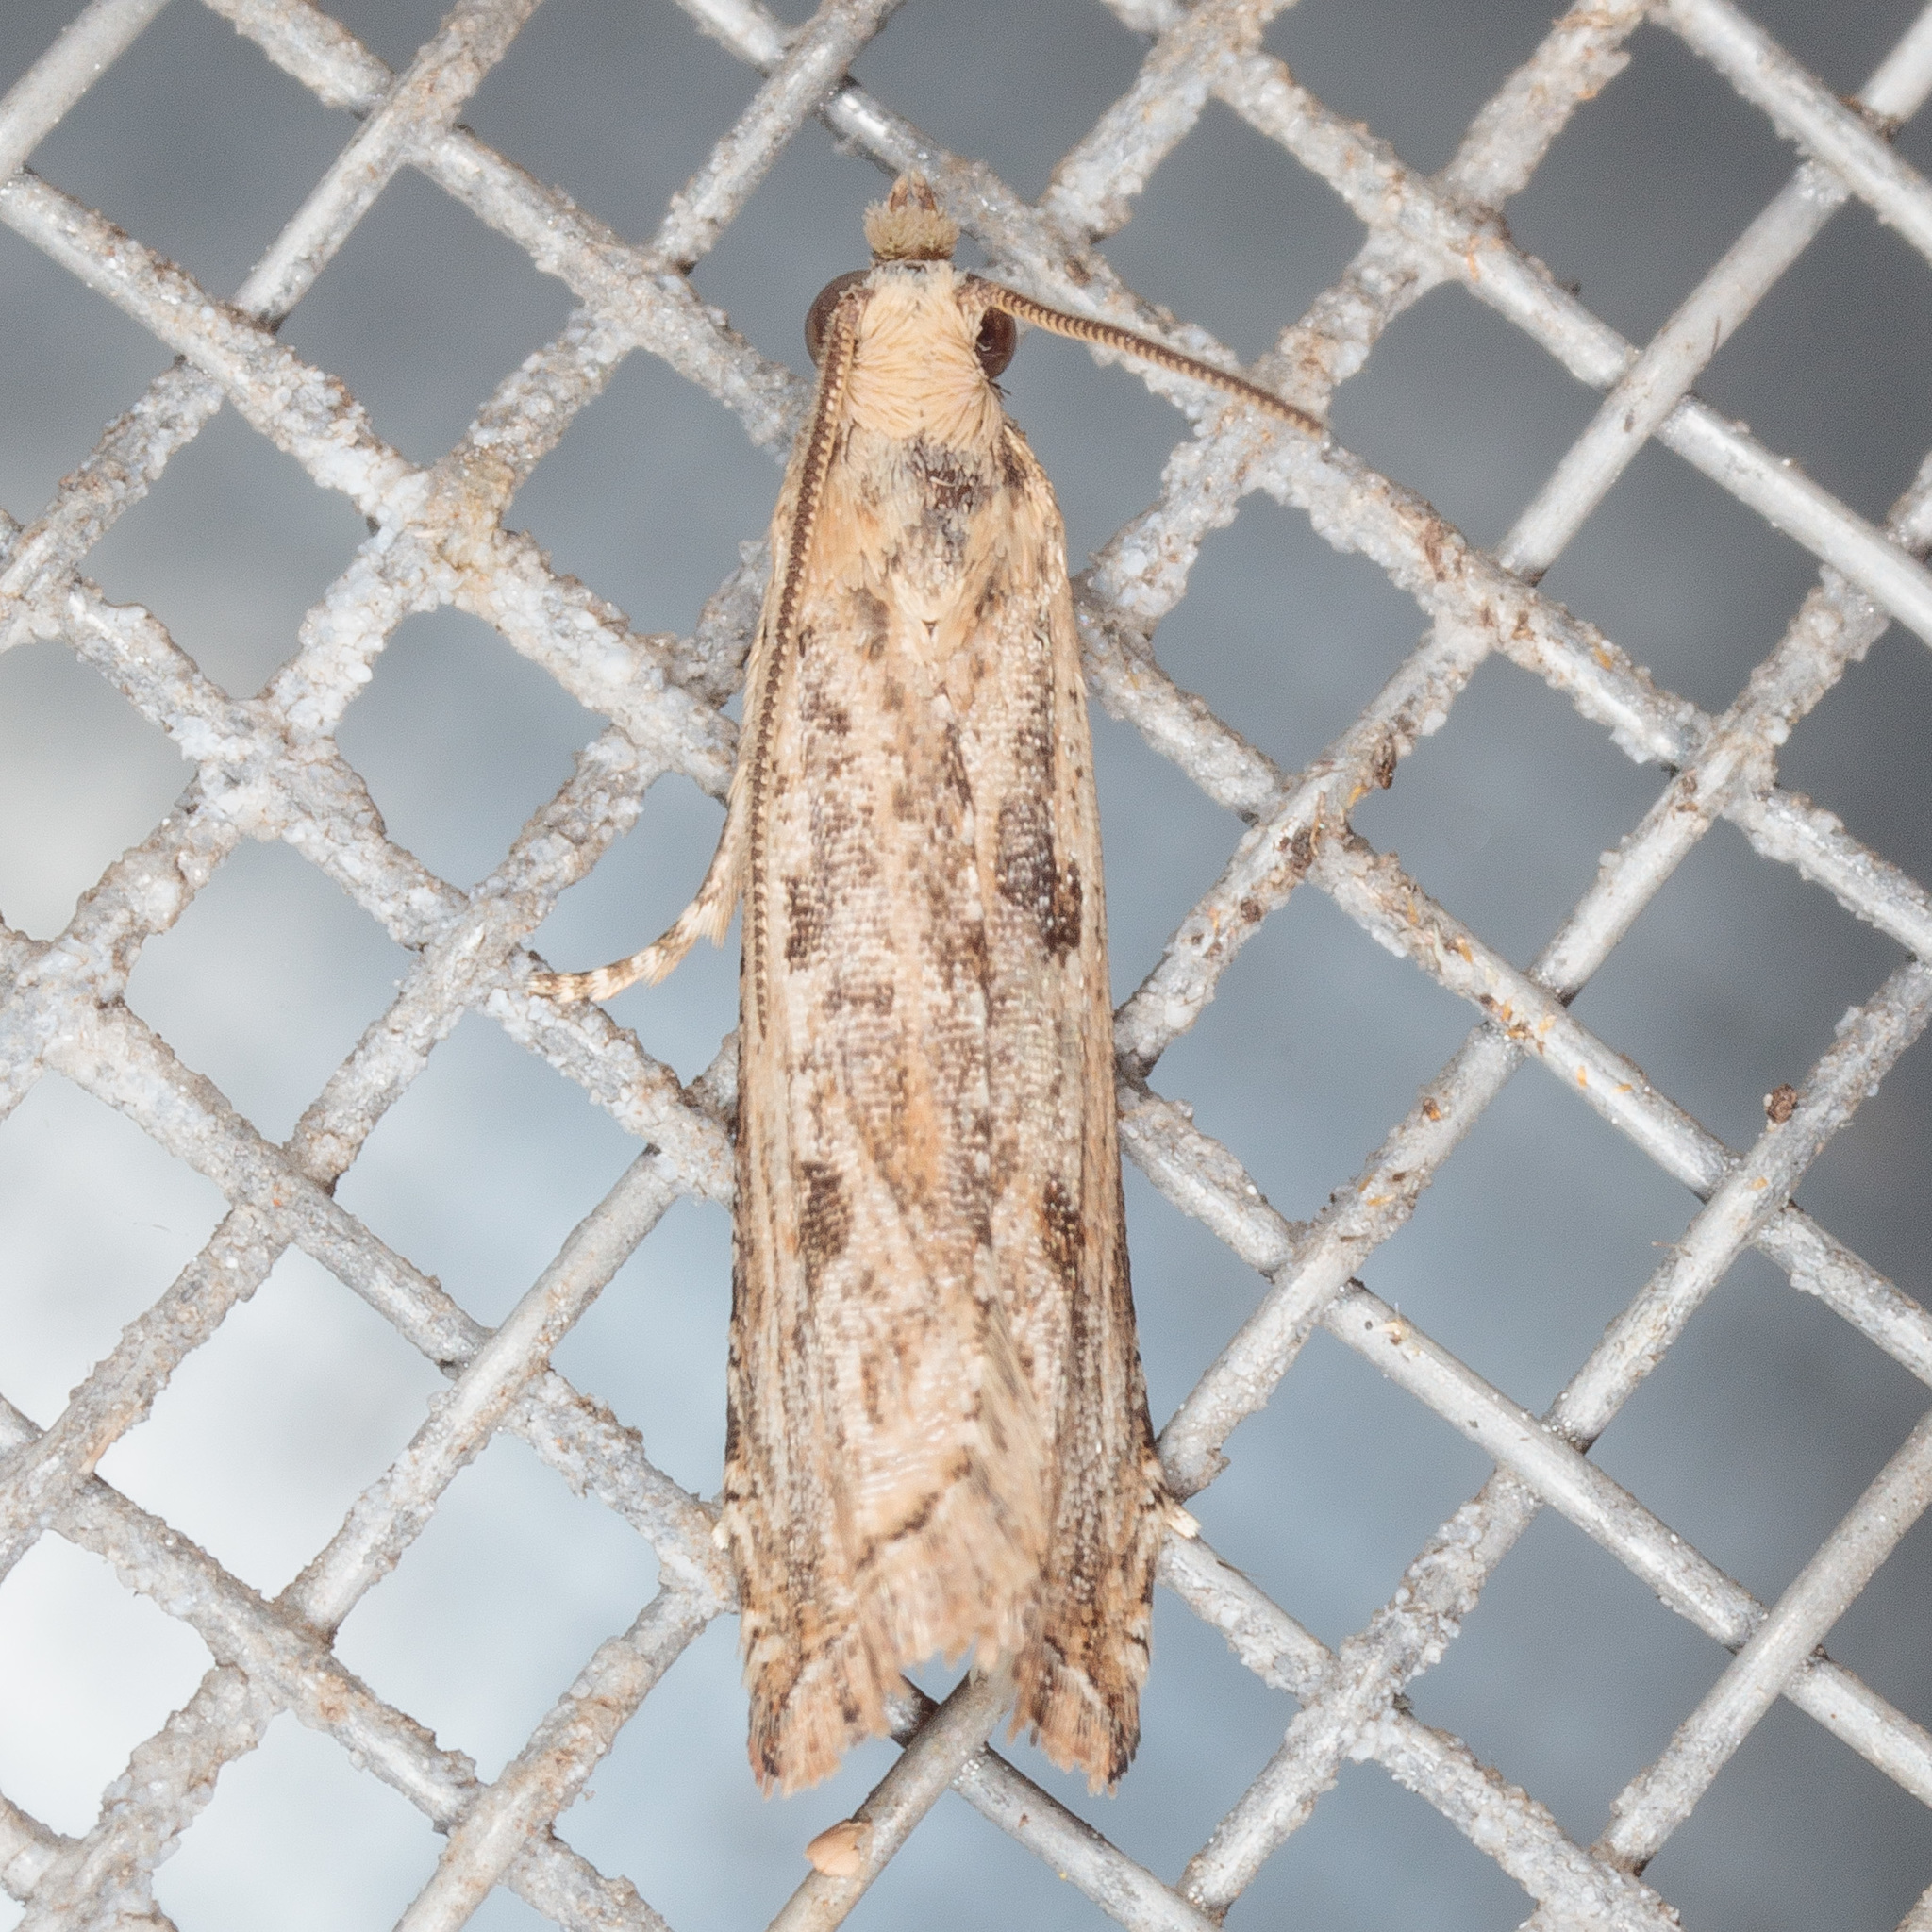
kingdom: Animalia
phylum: Arthropoda
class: Insecta
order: Lepidoptera
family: Tortricidae
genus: Bactra
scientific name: Bactra verutana
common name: Javelin moth
